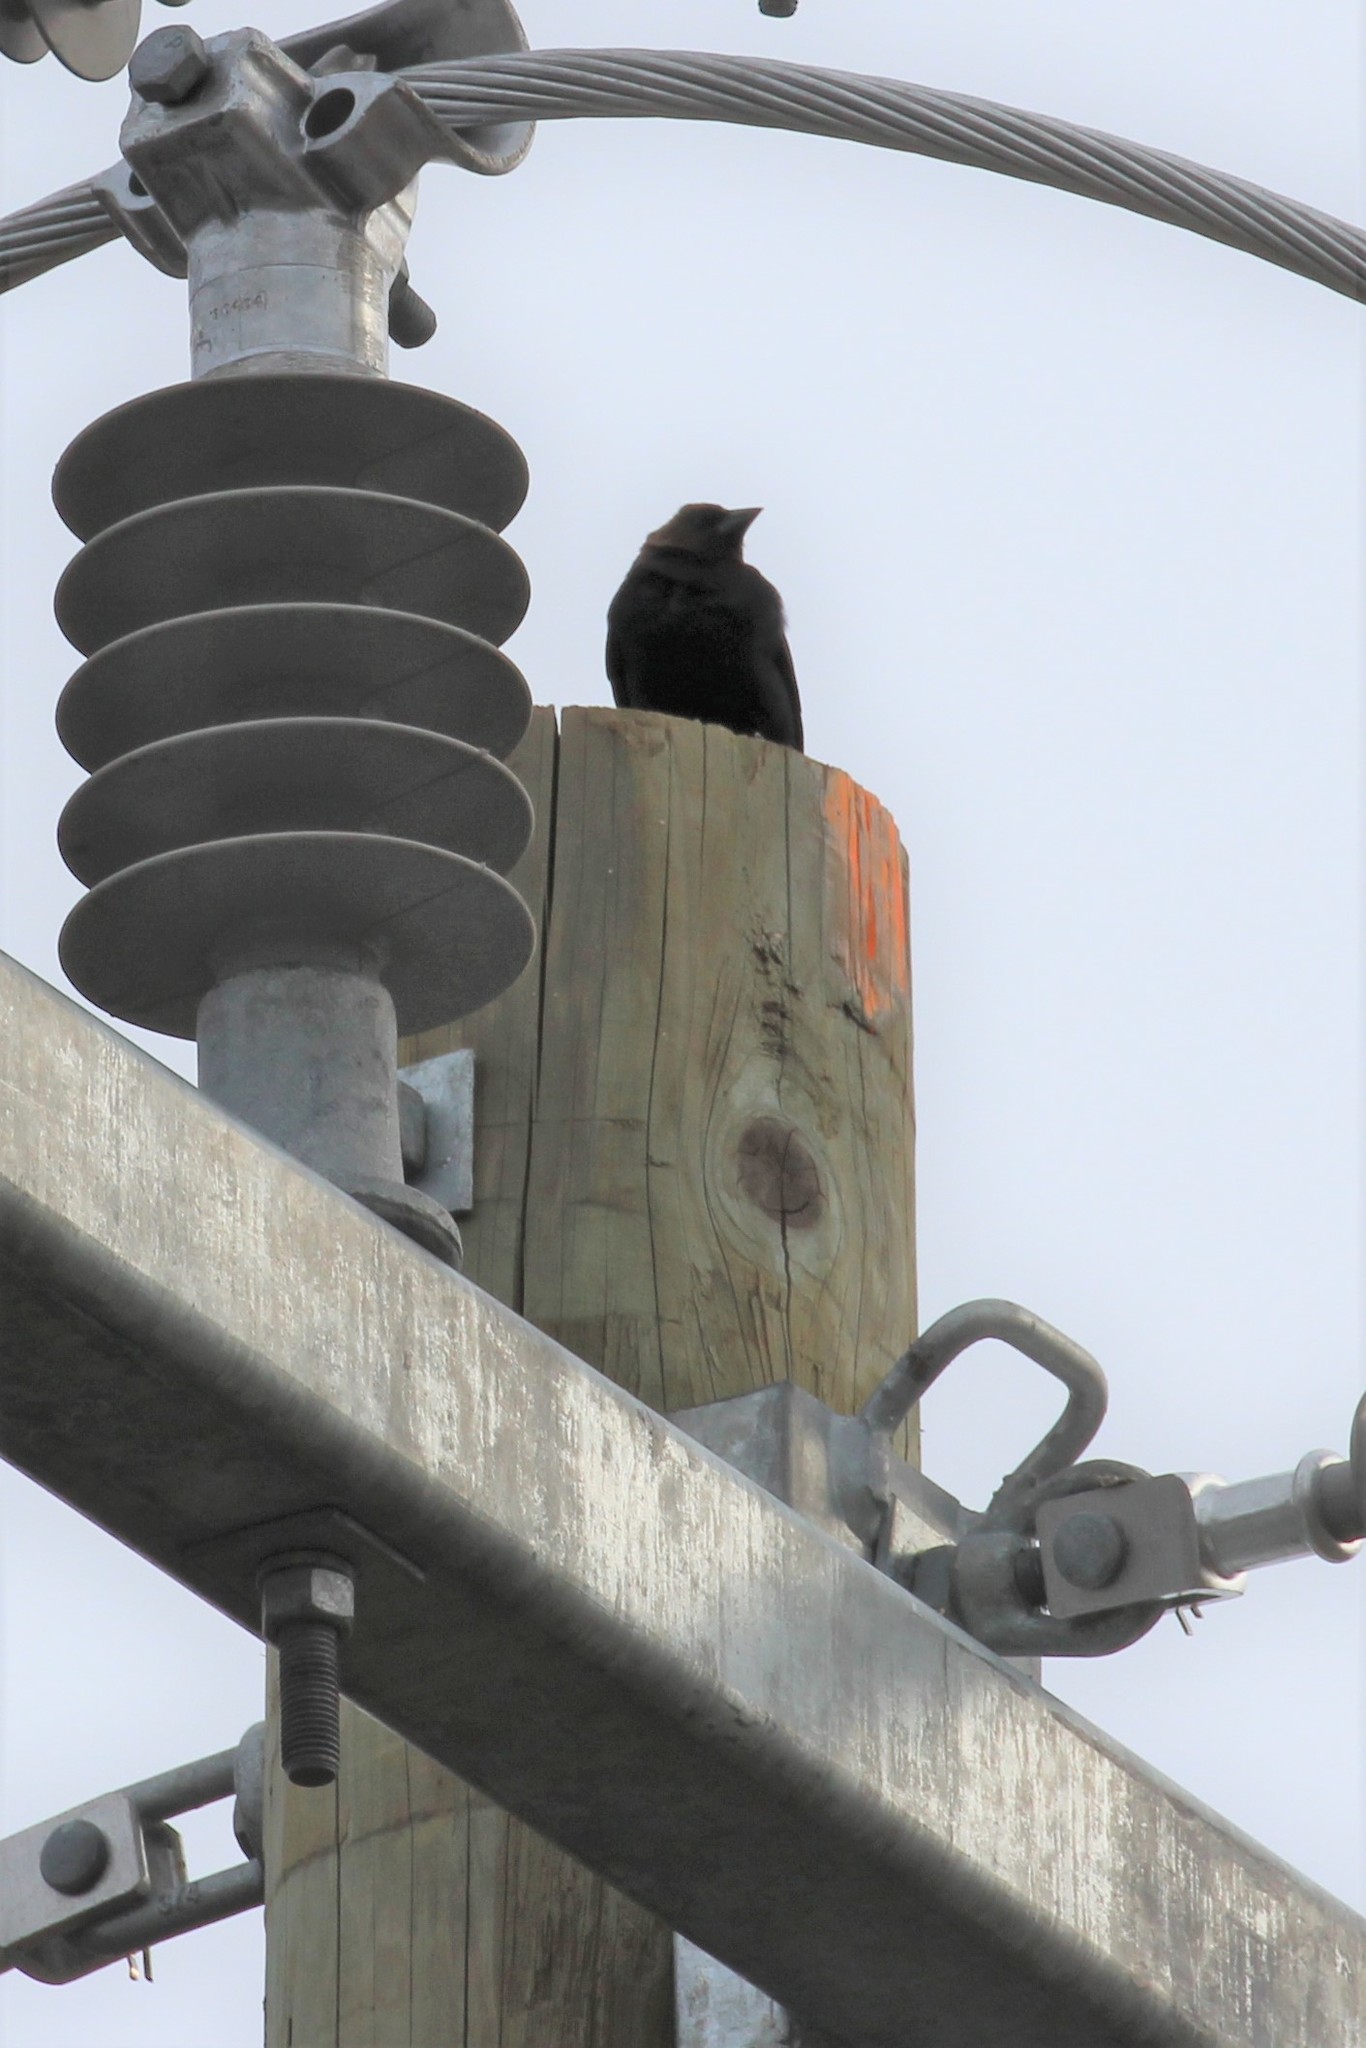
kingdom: Animalia
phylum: Chordata
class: Aves
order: Passeriformes
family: Icteridae
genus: Molothrus
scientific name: Molothrus ater
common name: Brown-headed cowbird
